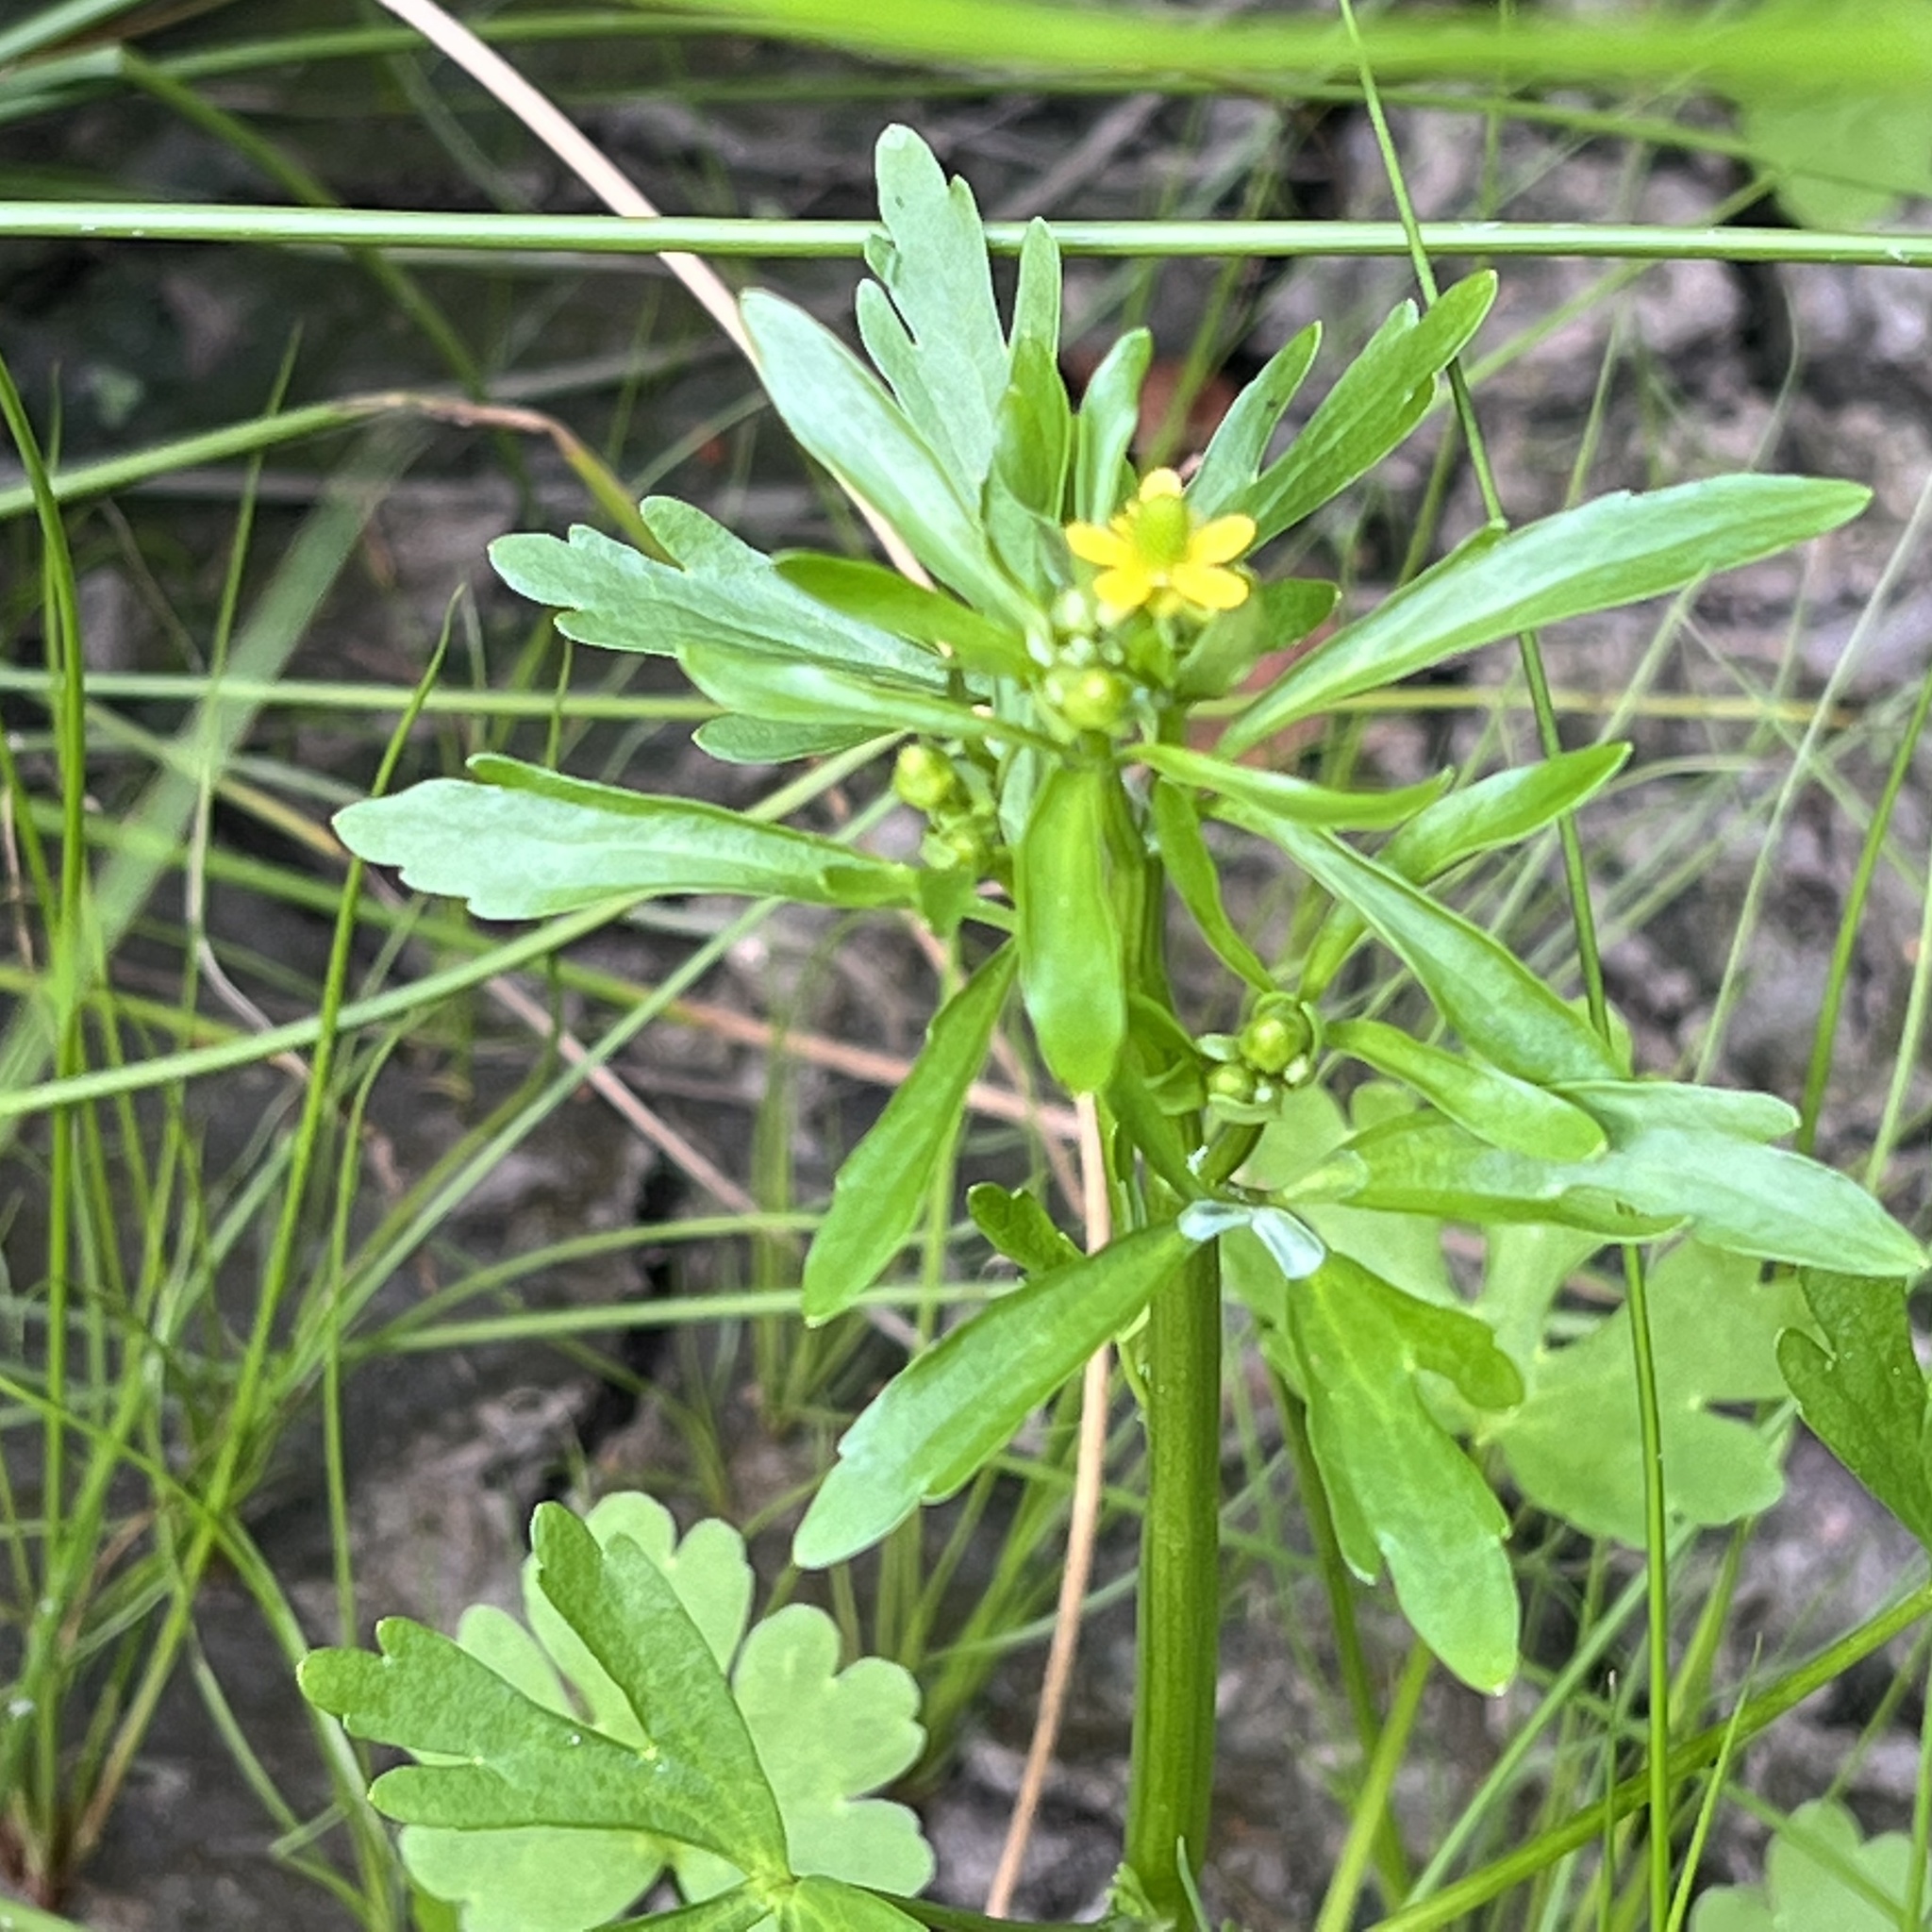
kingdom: Plantae
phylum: Tracheophyta
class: Magnoliopsida
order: Ranunculales
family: Ranunculaceae
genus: Ranunculus
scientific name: Ranunculus sceleratus
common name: Celery-leaved buttercup
